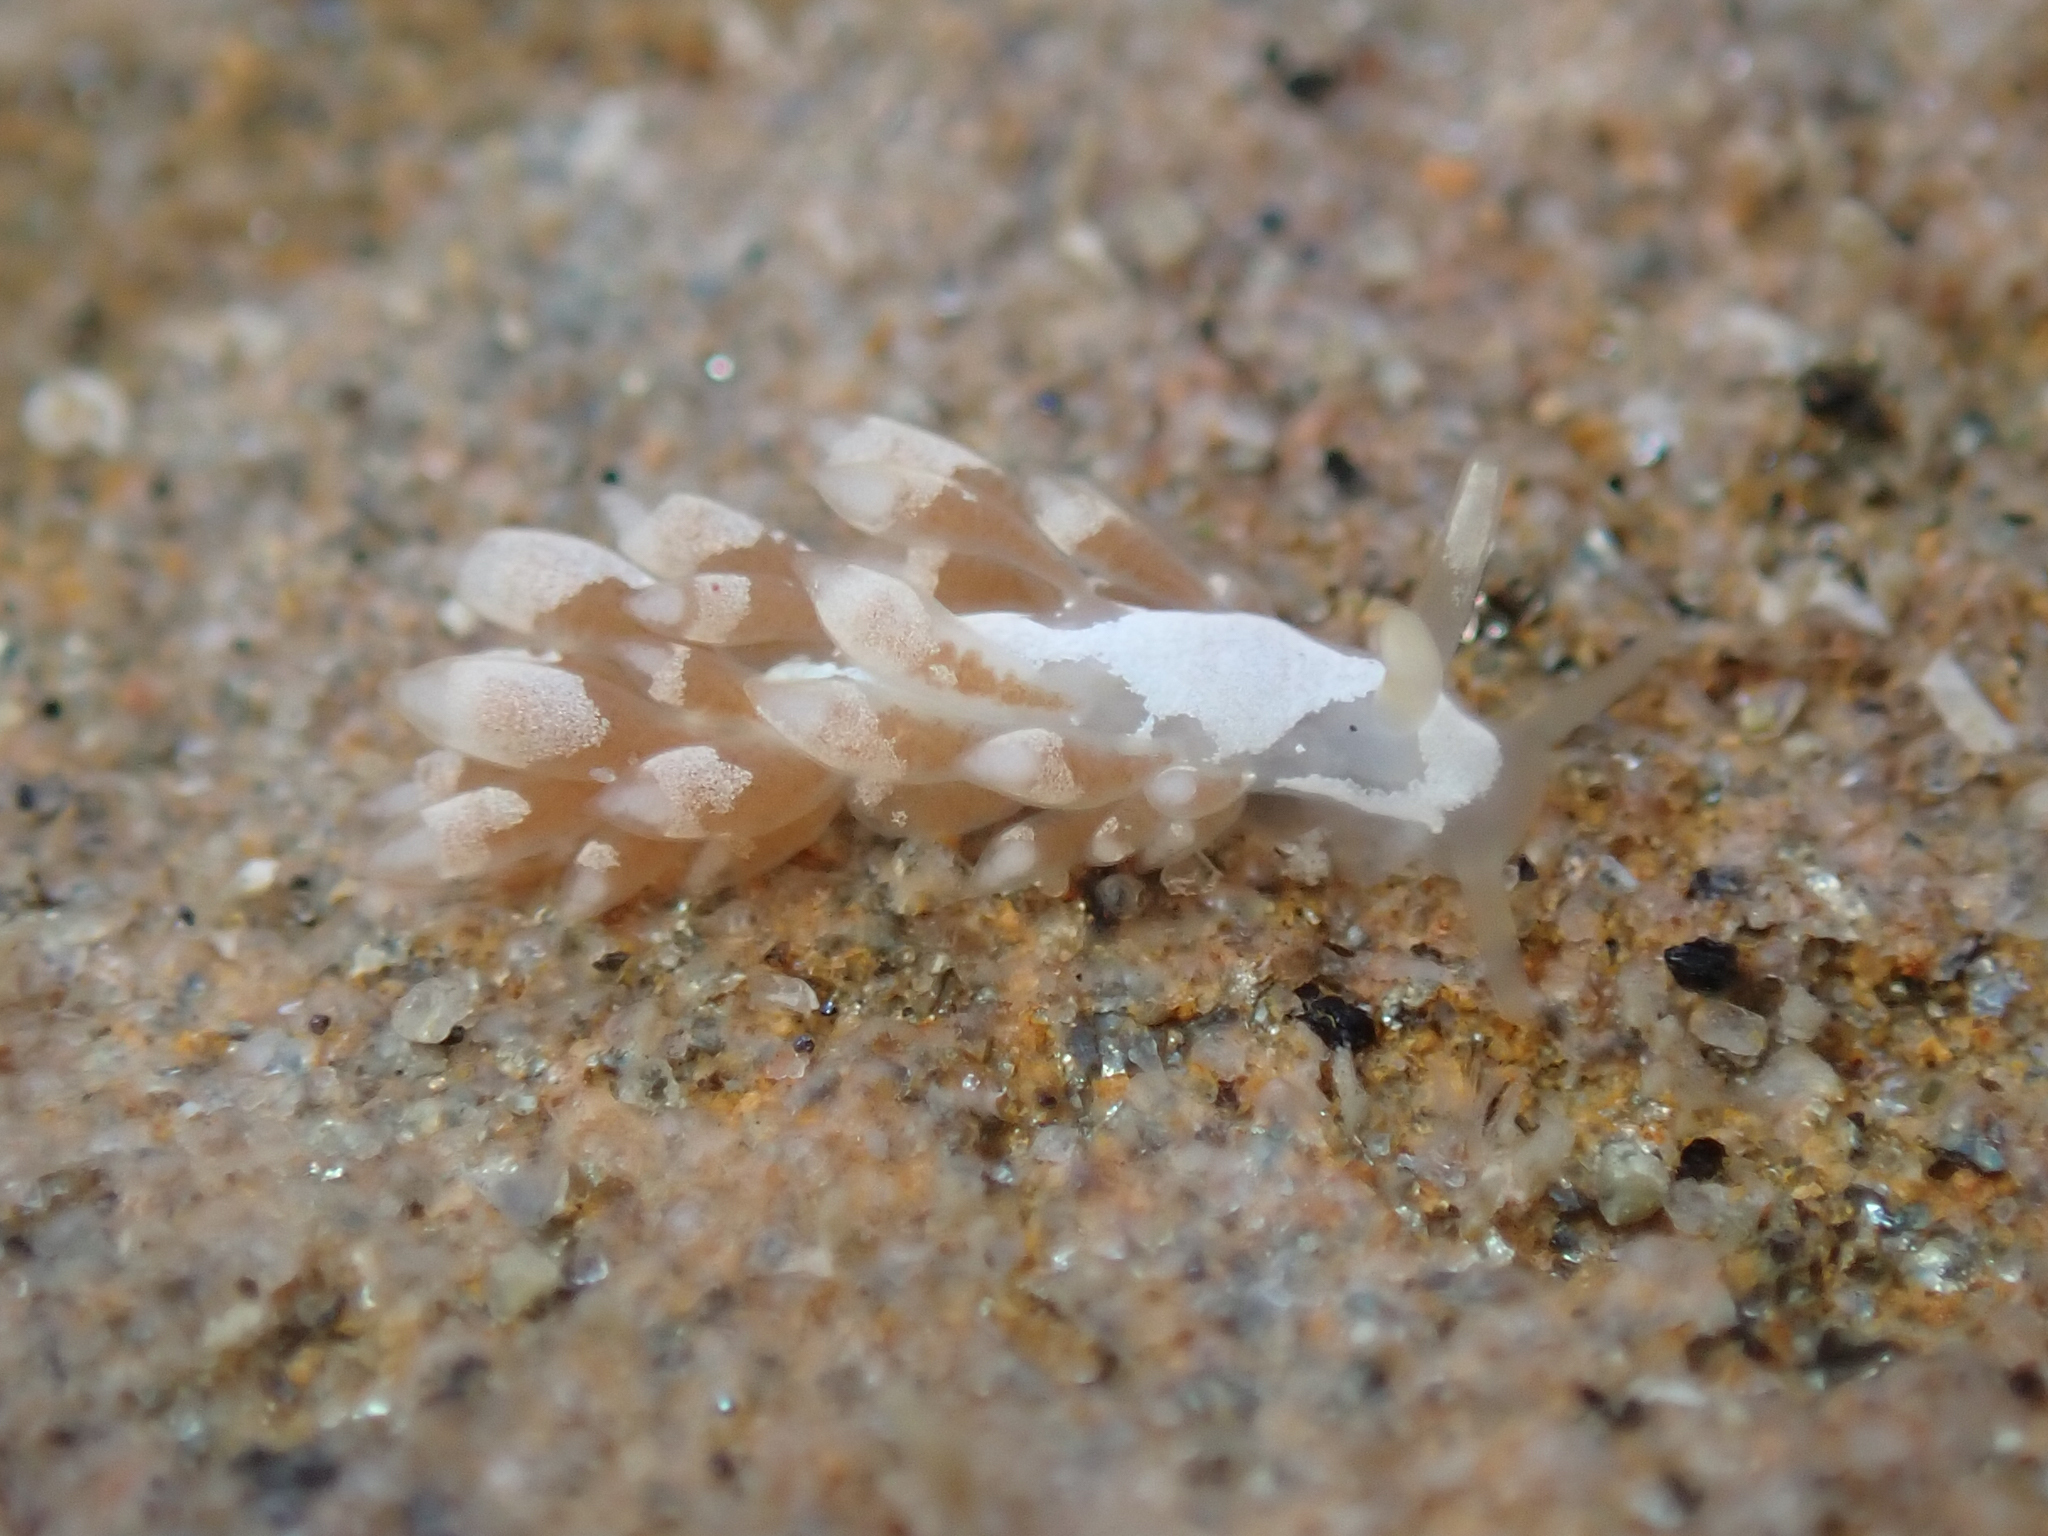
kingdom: Animalia
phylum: Mollusca
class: Gastropoda
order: Nudibranchia
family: Trinchesiidae
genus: Trinchesia
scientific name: Trinchesia albocrusta
